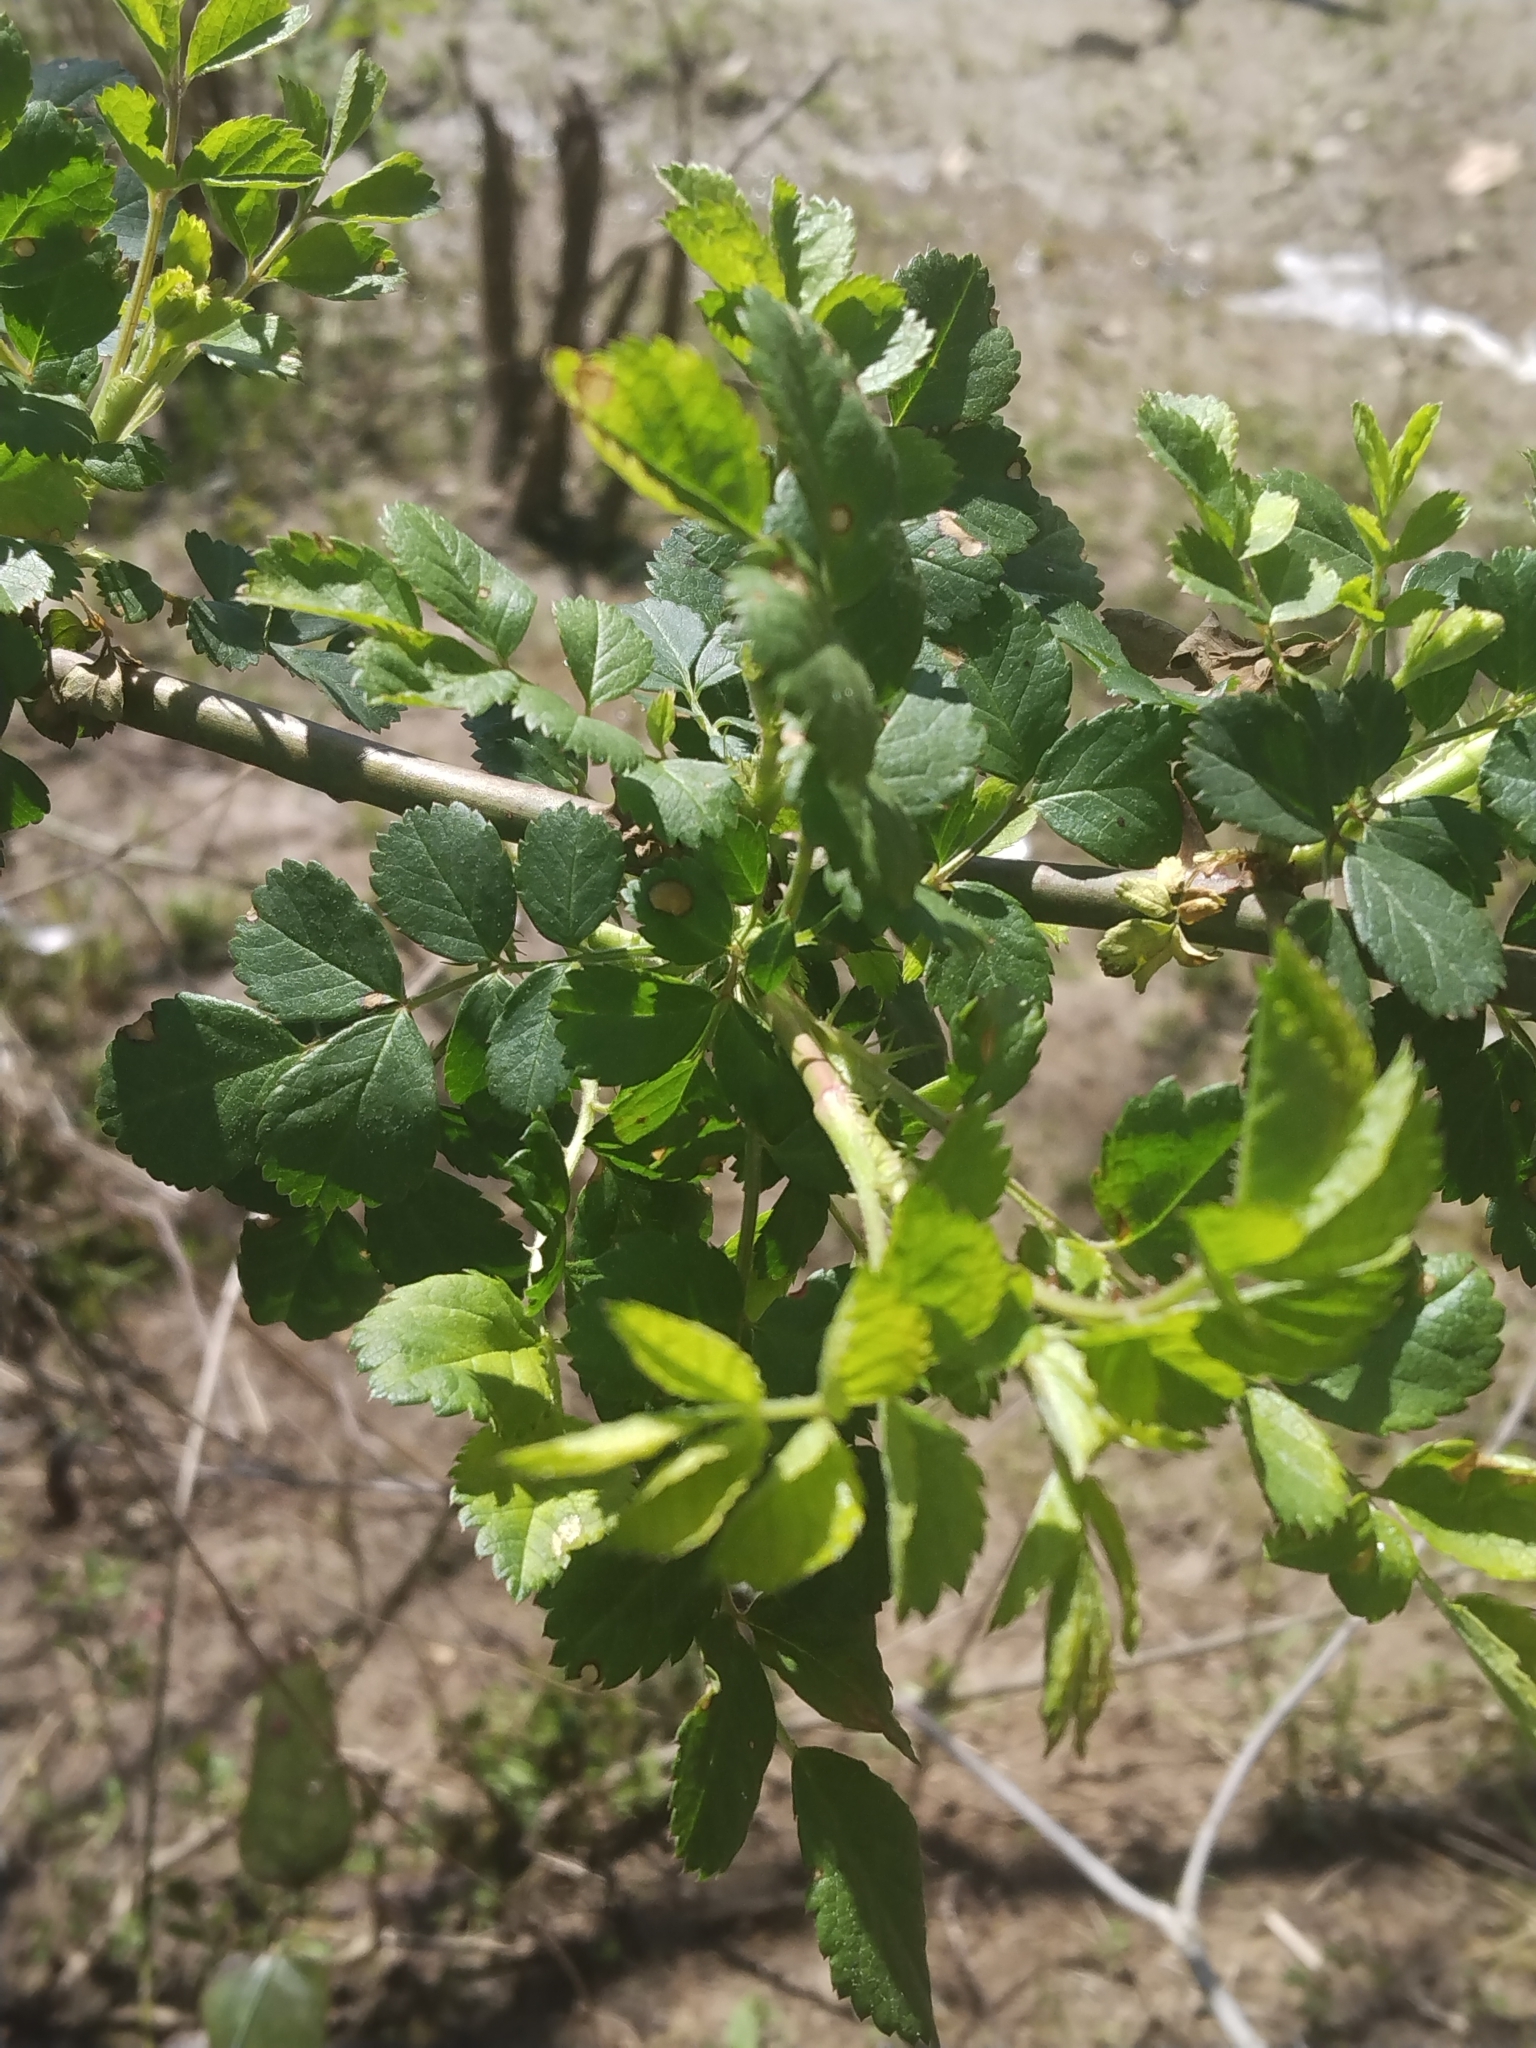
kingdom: Plantae
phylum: Tracheophyta
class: Magnoliopsida
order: Rosales
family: Rosaceae
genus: Rosa
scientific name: Rosa multiflora
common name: Multiflora rose
